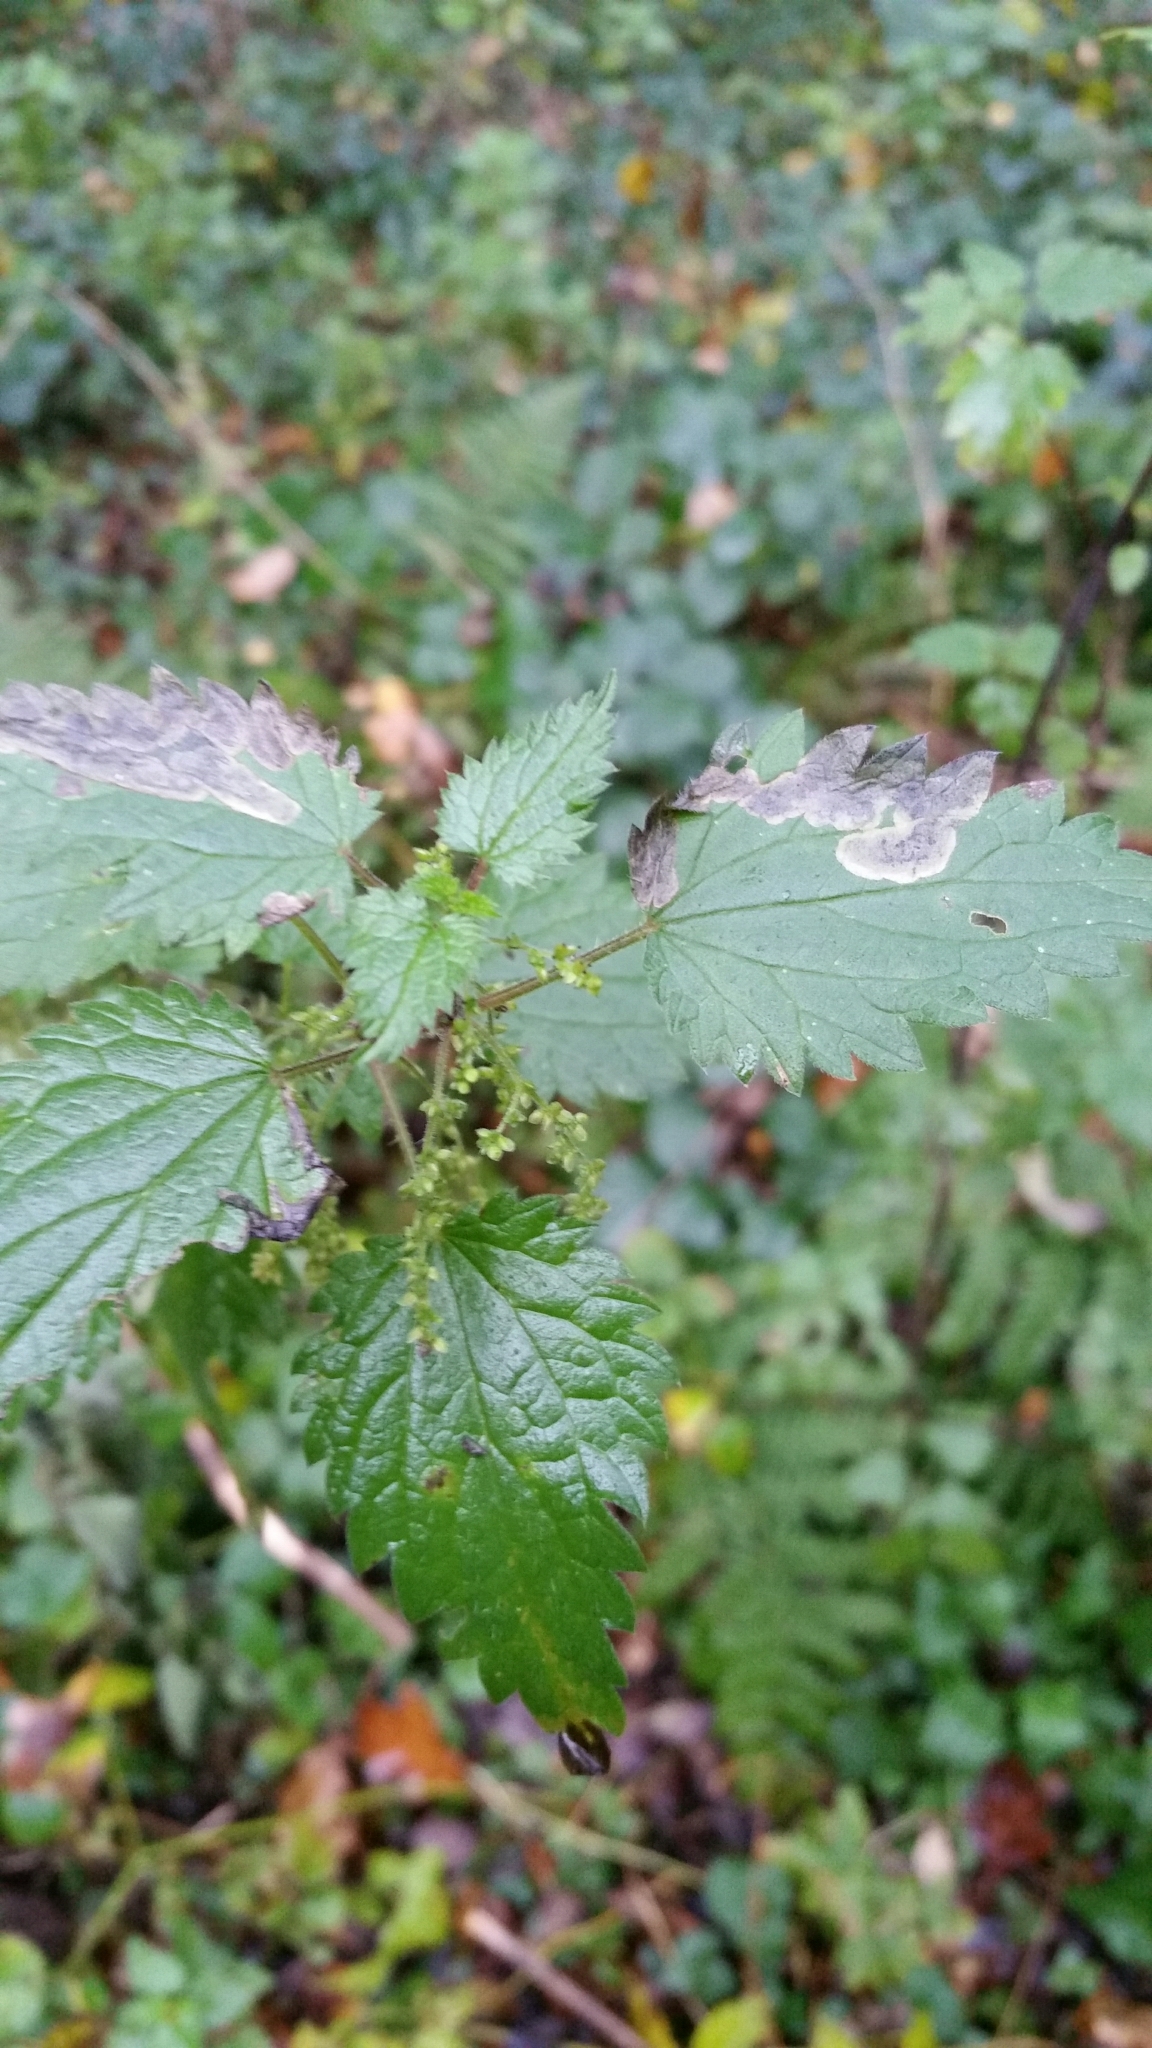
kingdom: Animalia
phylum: Arthropoda
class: Insecta
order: Diptera
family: Agromyzidae
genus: Agromyza
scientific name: Agromyza anthracina
